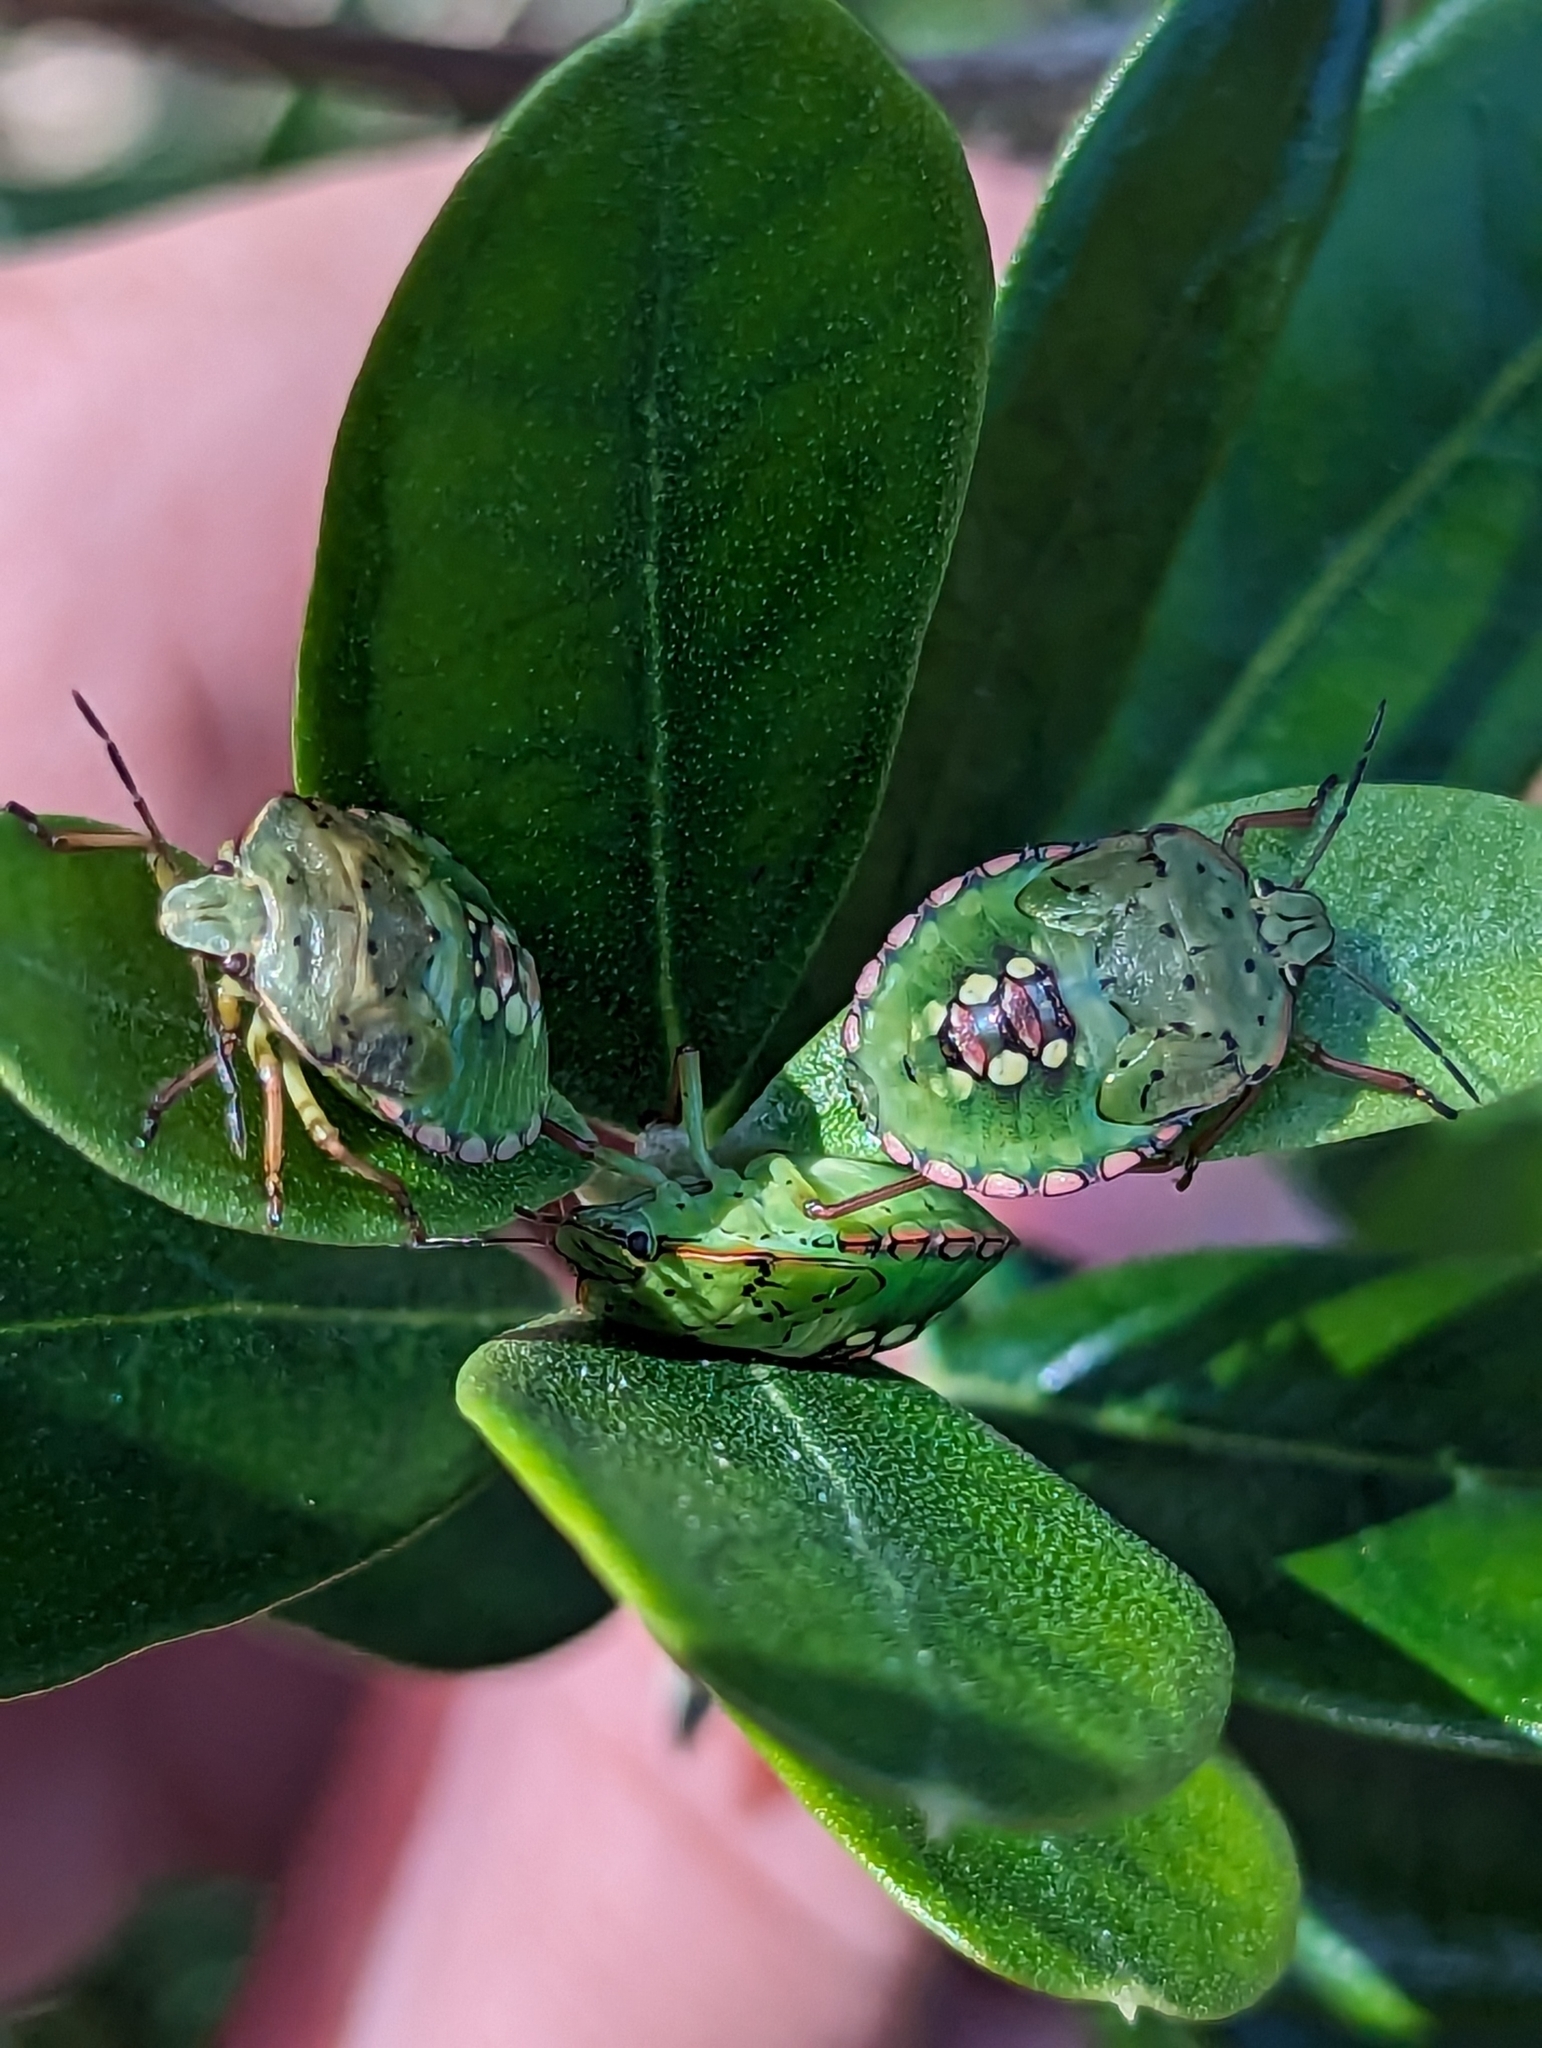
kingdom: Animalia
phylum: Arthropoda
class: Insecta
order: Hemiptera
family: Pentatomidae
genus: Nezara
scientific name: Nezara viridula
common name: Southern green stink bug
